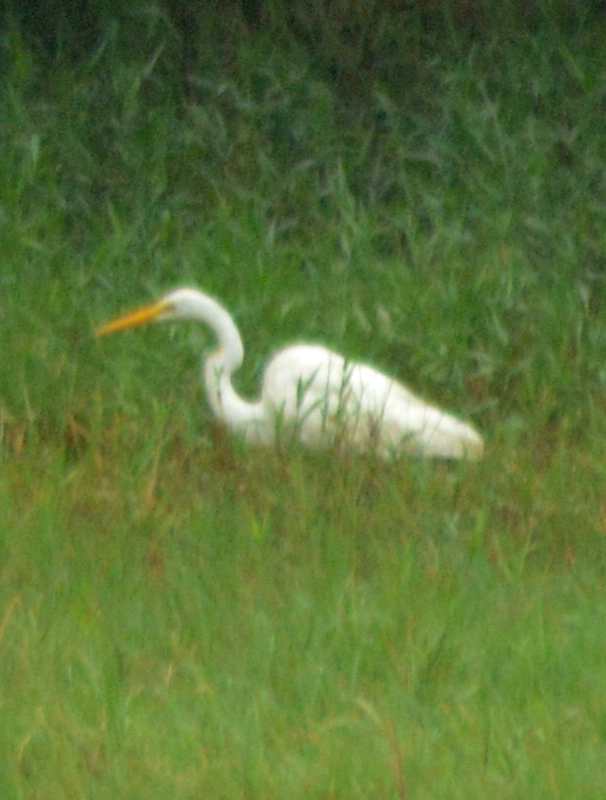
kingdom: Animalia
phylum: Chordata
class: Aves
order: Pelecaniformes
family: Ardeidae
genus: Ardea
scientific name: Ardea alba
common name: Great egret
